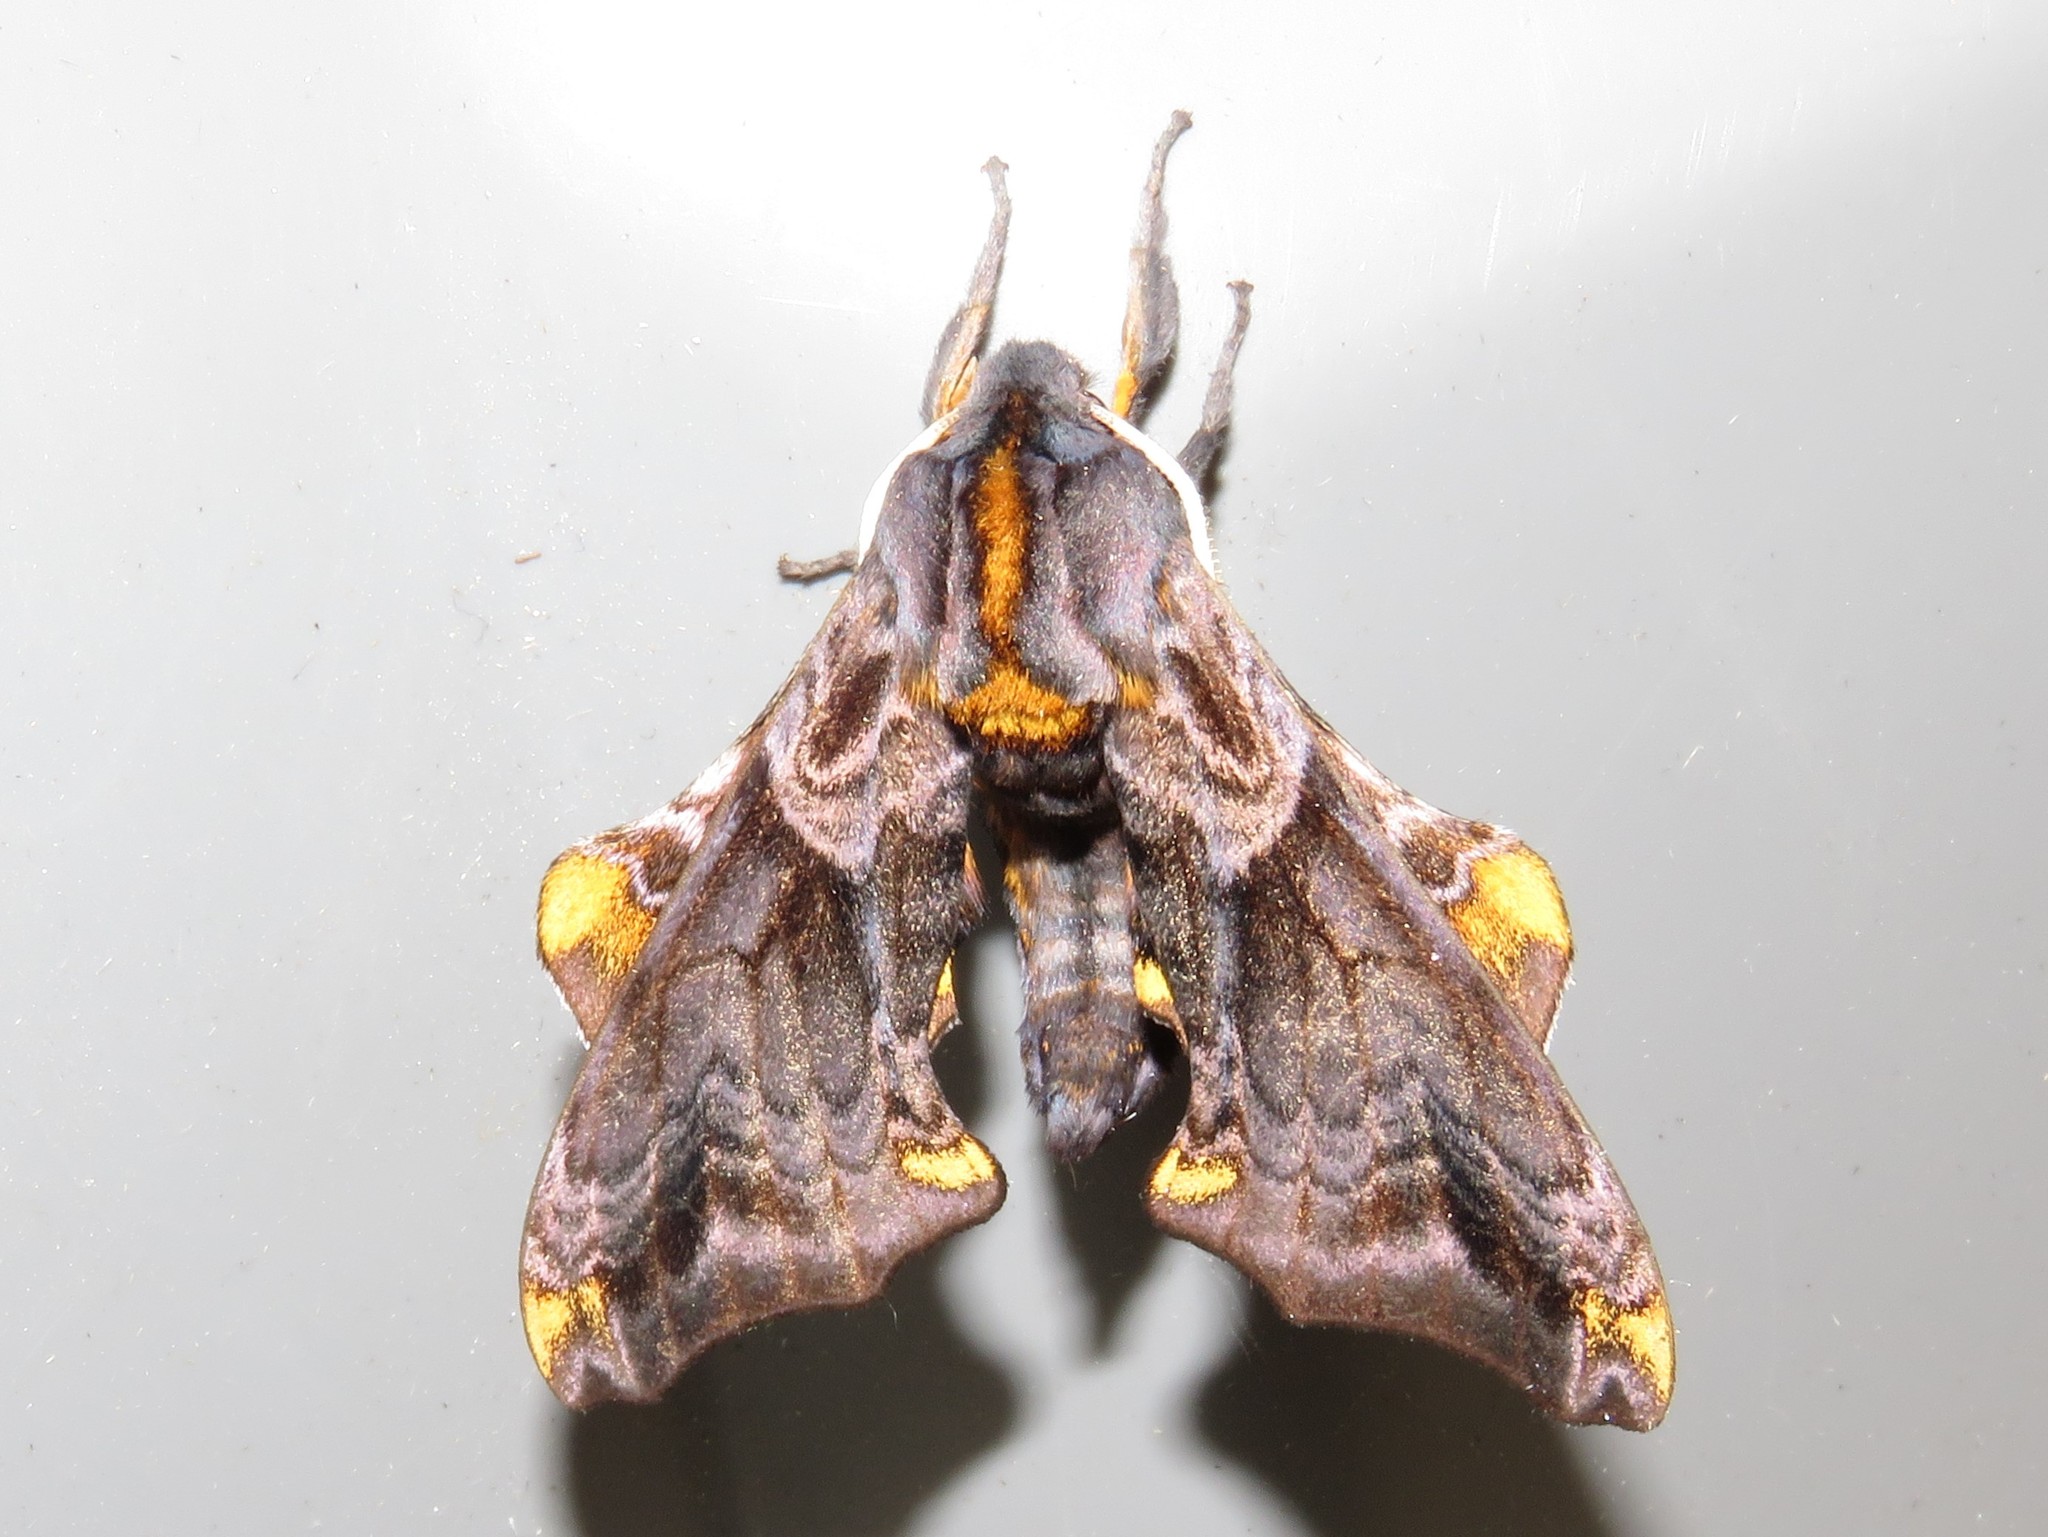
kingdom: Animalia
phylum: Arthropoda
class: Insecta
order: Lepidoptera
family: Sphingidae
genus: Paonias
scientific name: Paonias myops
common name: Small-eyed sphinx
